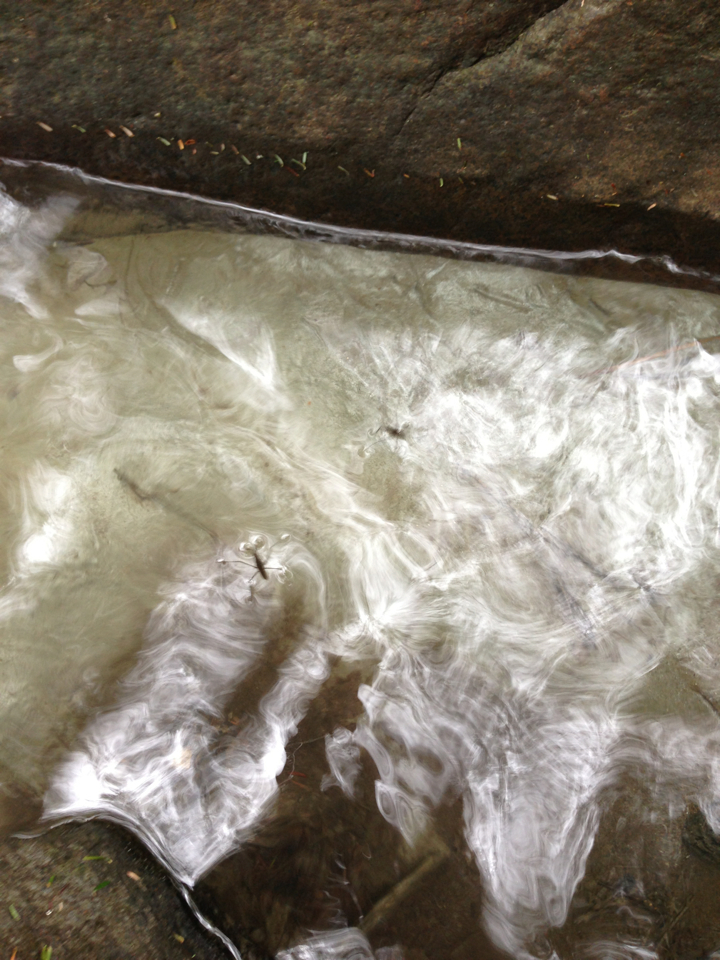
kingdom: Animalia
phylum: Arthropoda
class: Insecta
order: Hemiptera
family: Gerridae
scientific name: Gerridae
